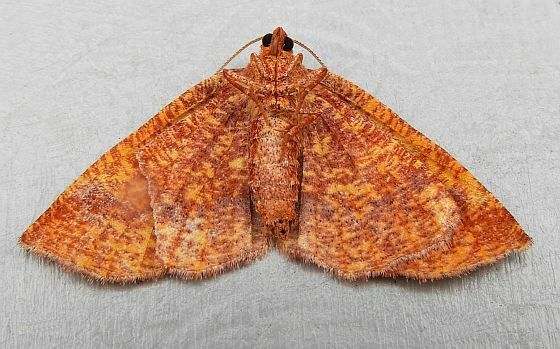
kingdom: Animalia
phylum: Arthropoda
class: Insecta
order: Lepidoptera
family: Geometridae
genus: Plagodis
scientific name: Plagodis pulveraria
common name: Barred umber
